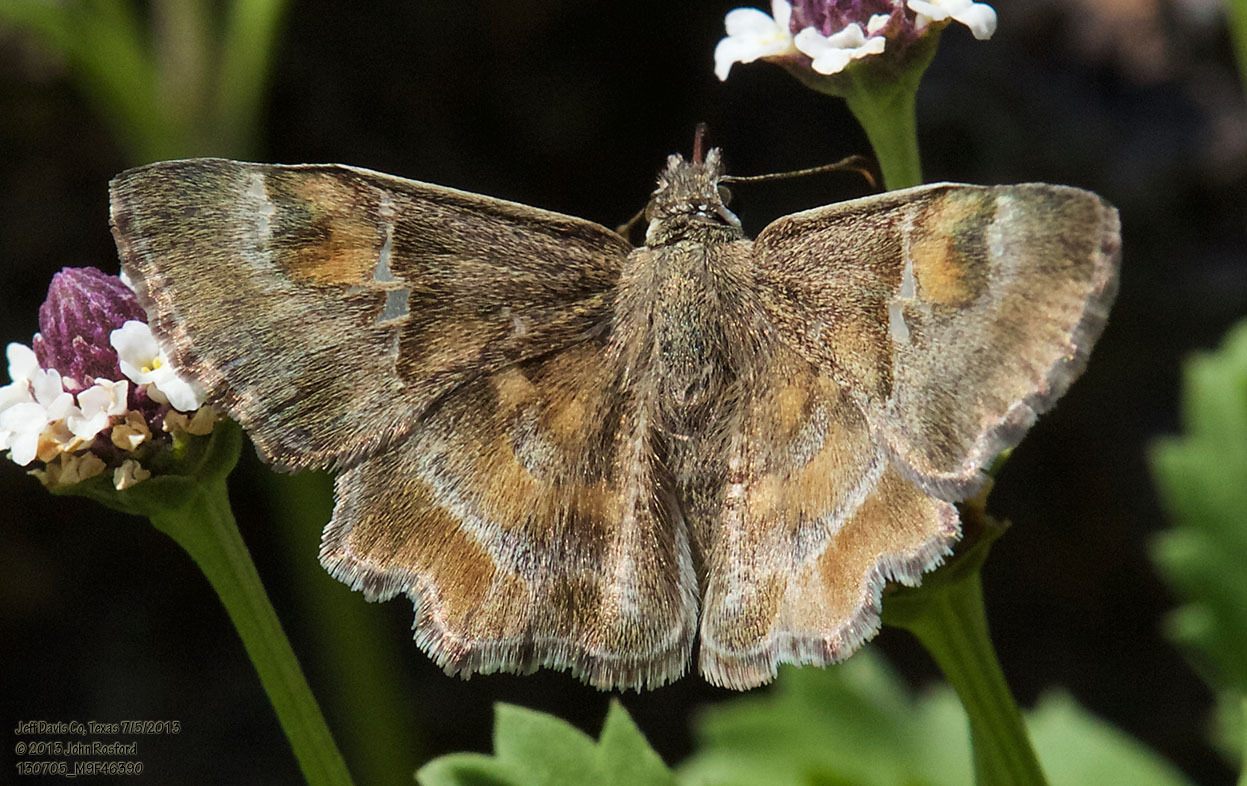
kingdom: Animalia
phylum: Arthropoda
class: Insecta
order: Lepidoptera
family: Hesperiidae
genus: Systasea
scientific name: Systasea zampa
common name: Arizona powdered-skipper
